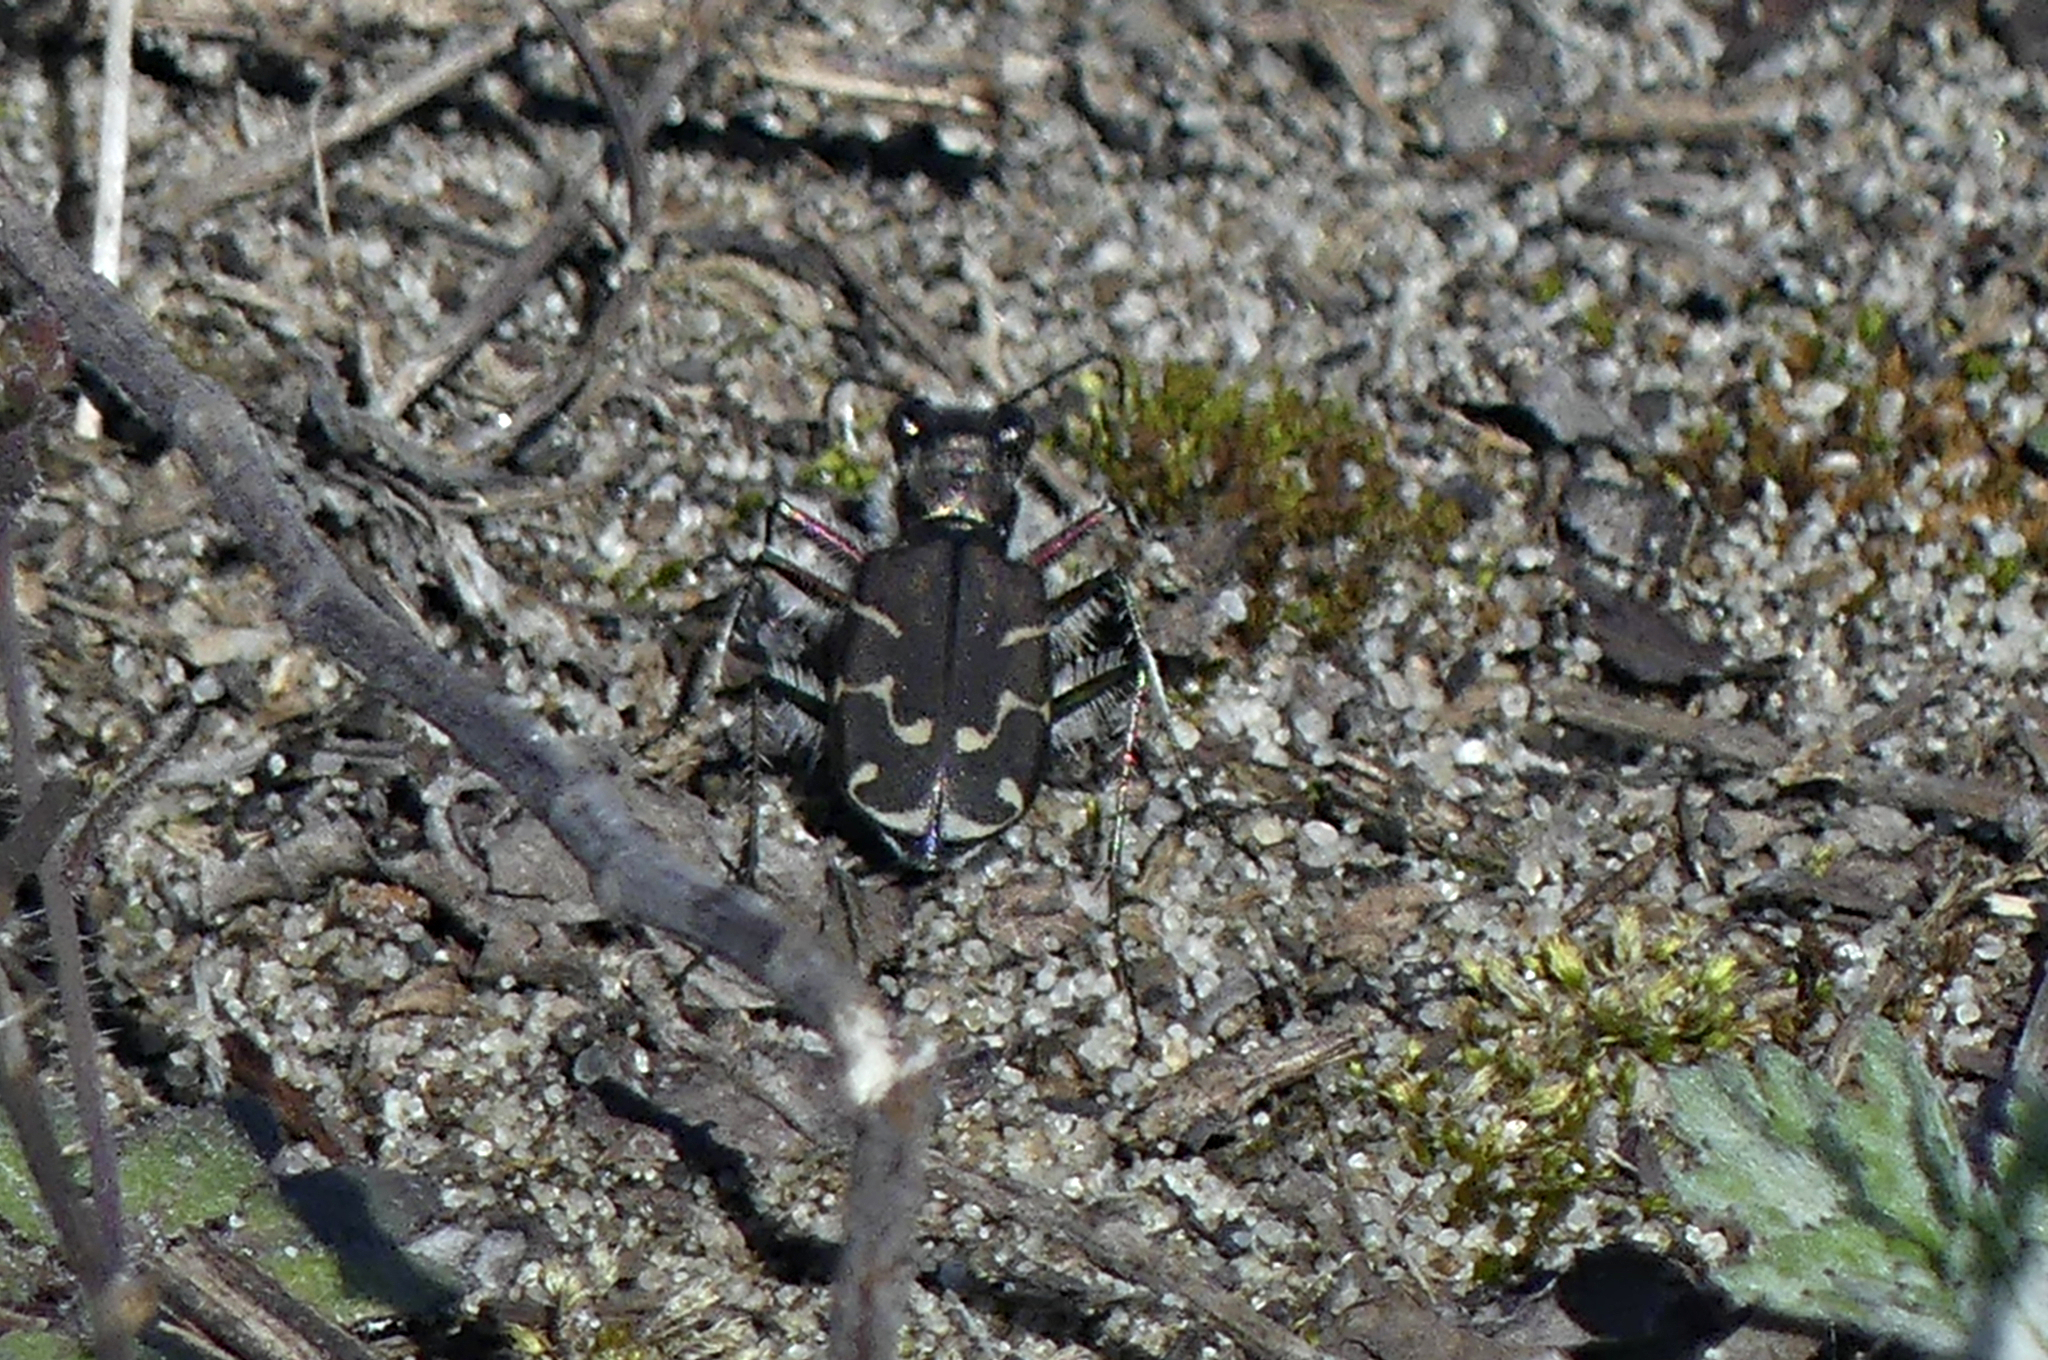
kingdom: Animalia
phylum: Arthropoda
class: Insecta
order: Coleoptera
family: Carabidae
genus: Cicindela
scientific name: Cicindela tranquebarica
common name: Oblique-lined tiger beetle
